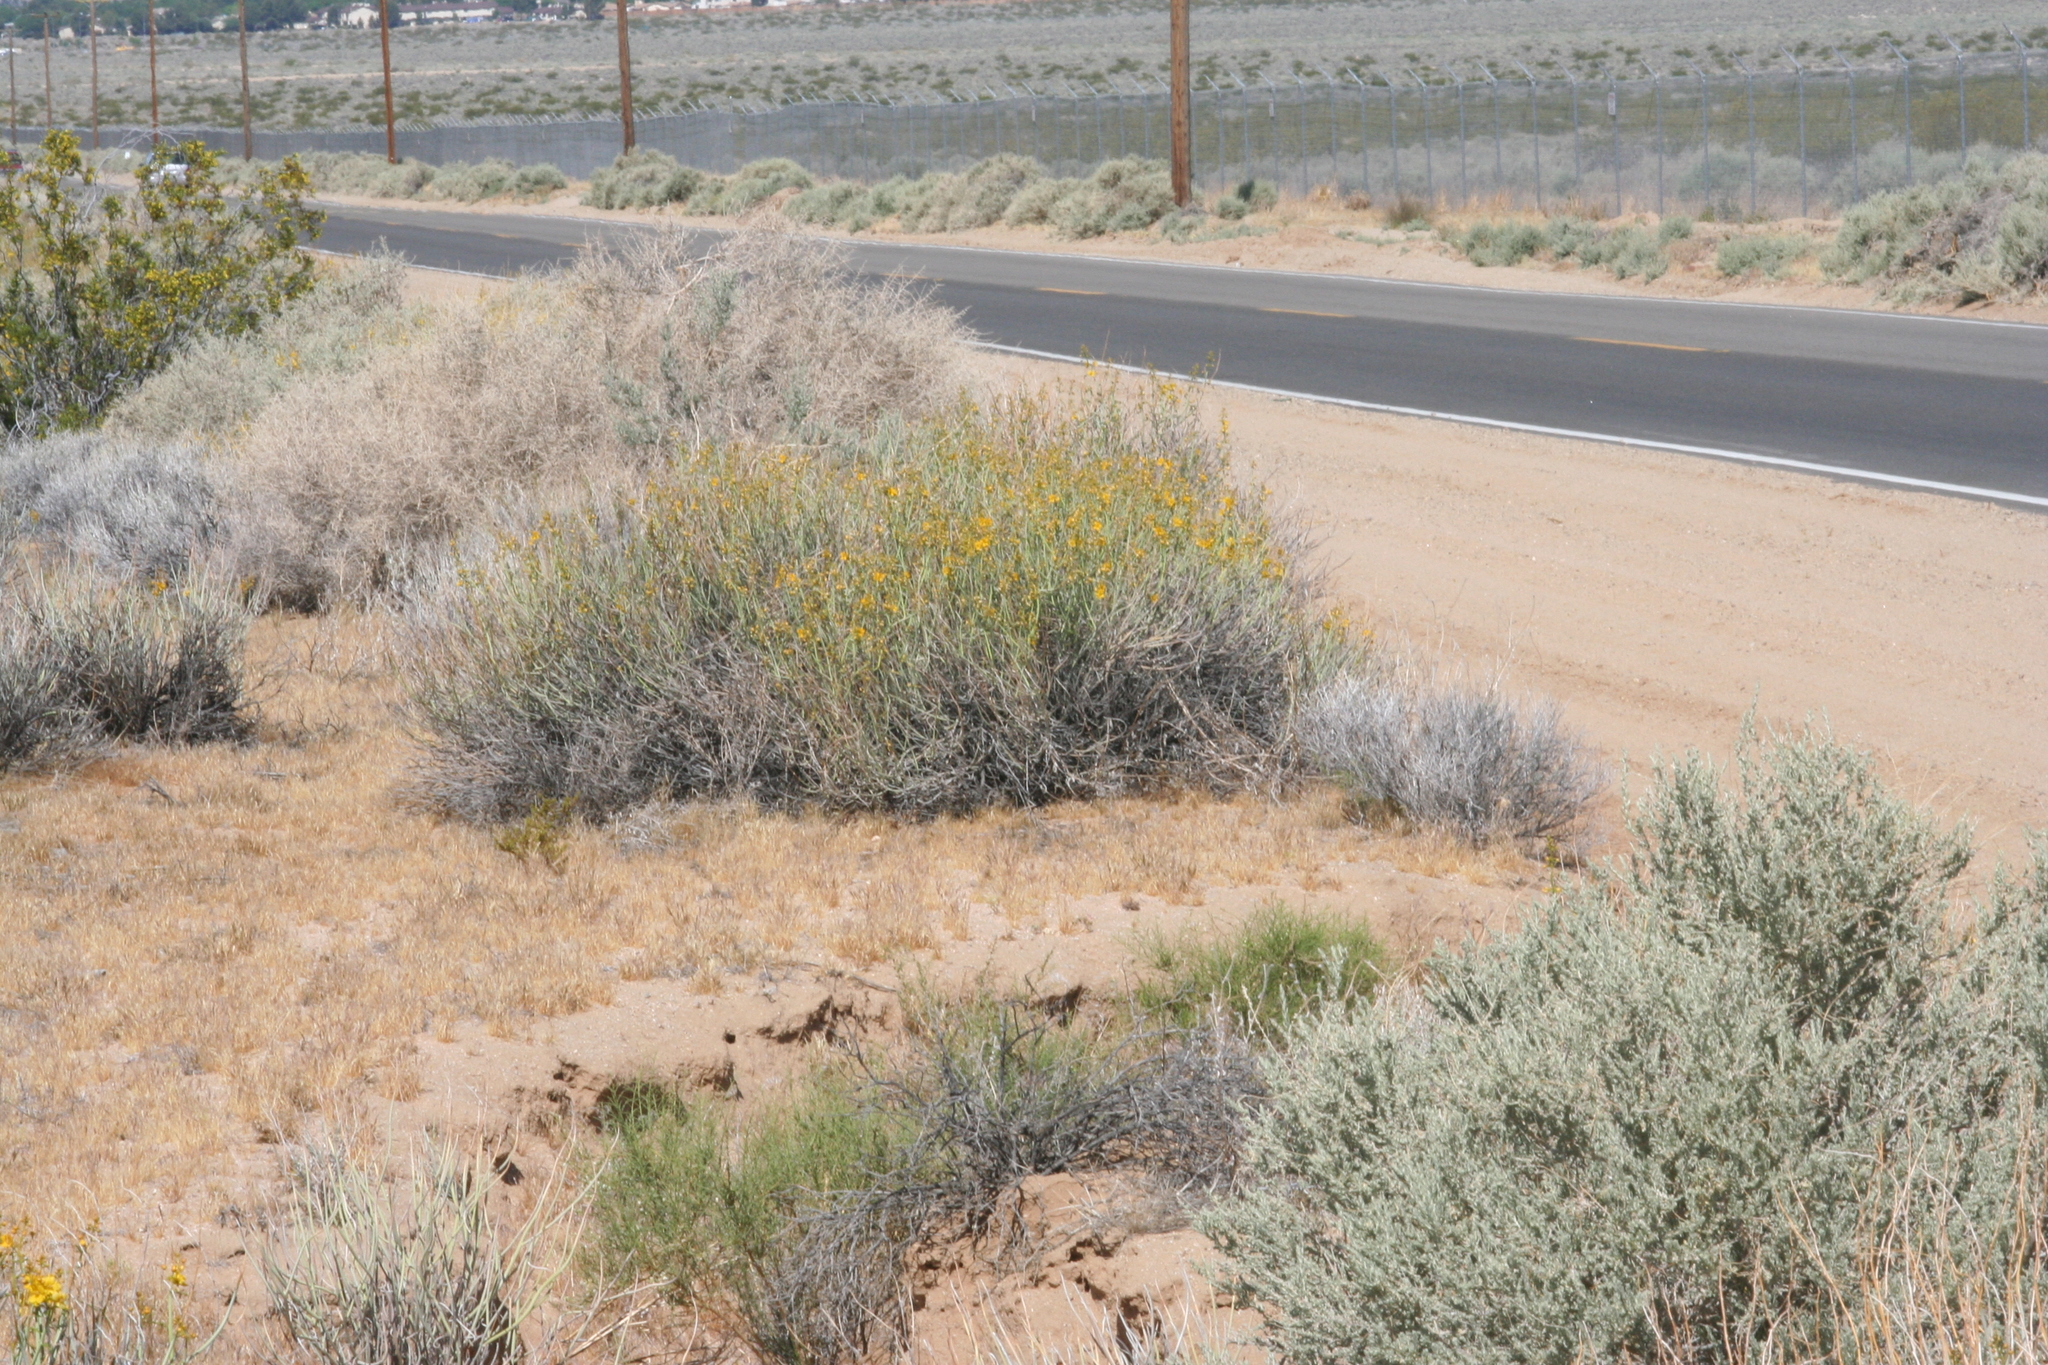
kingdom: Plantae
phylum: Tracheophyta
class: Magnoliopsida
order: Brassicales
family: Cleomaceae
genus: Cleomella
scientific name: Cleomella obtusifolia
